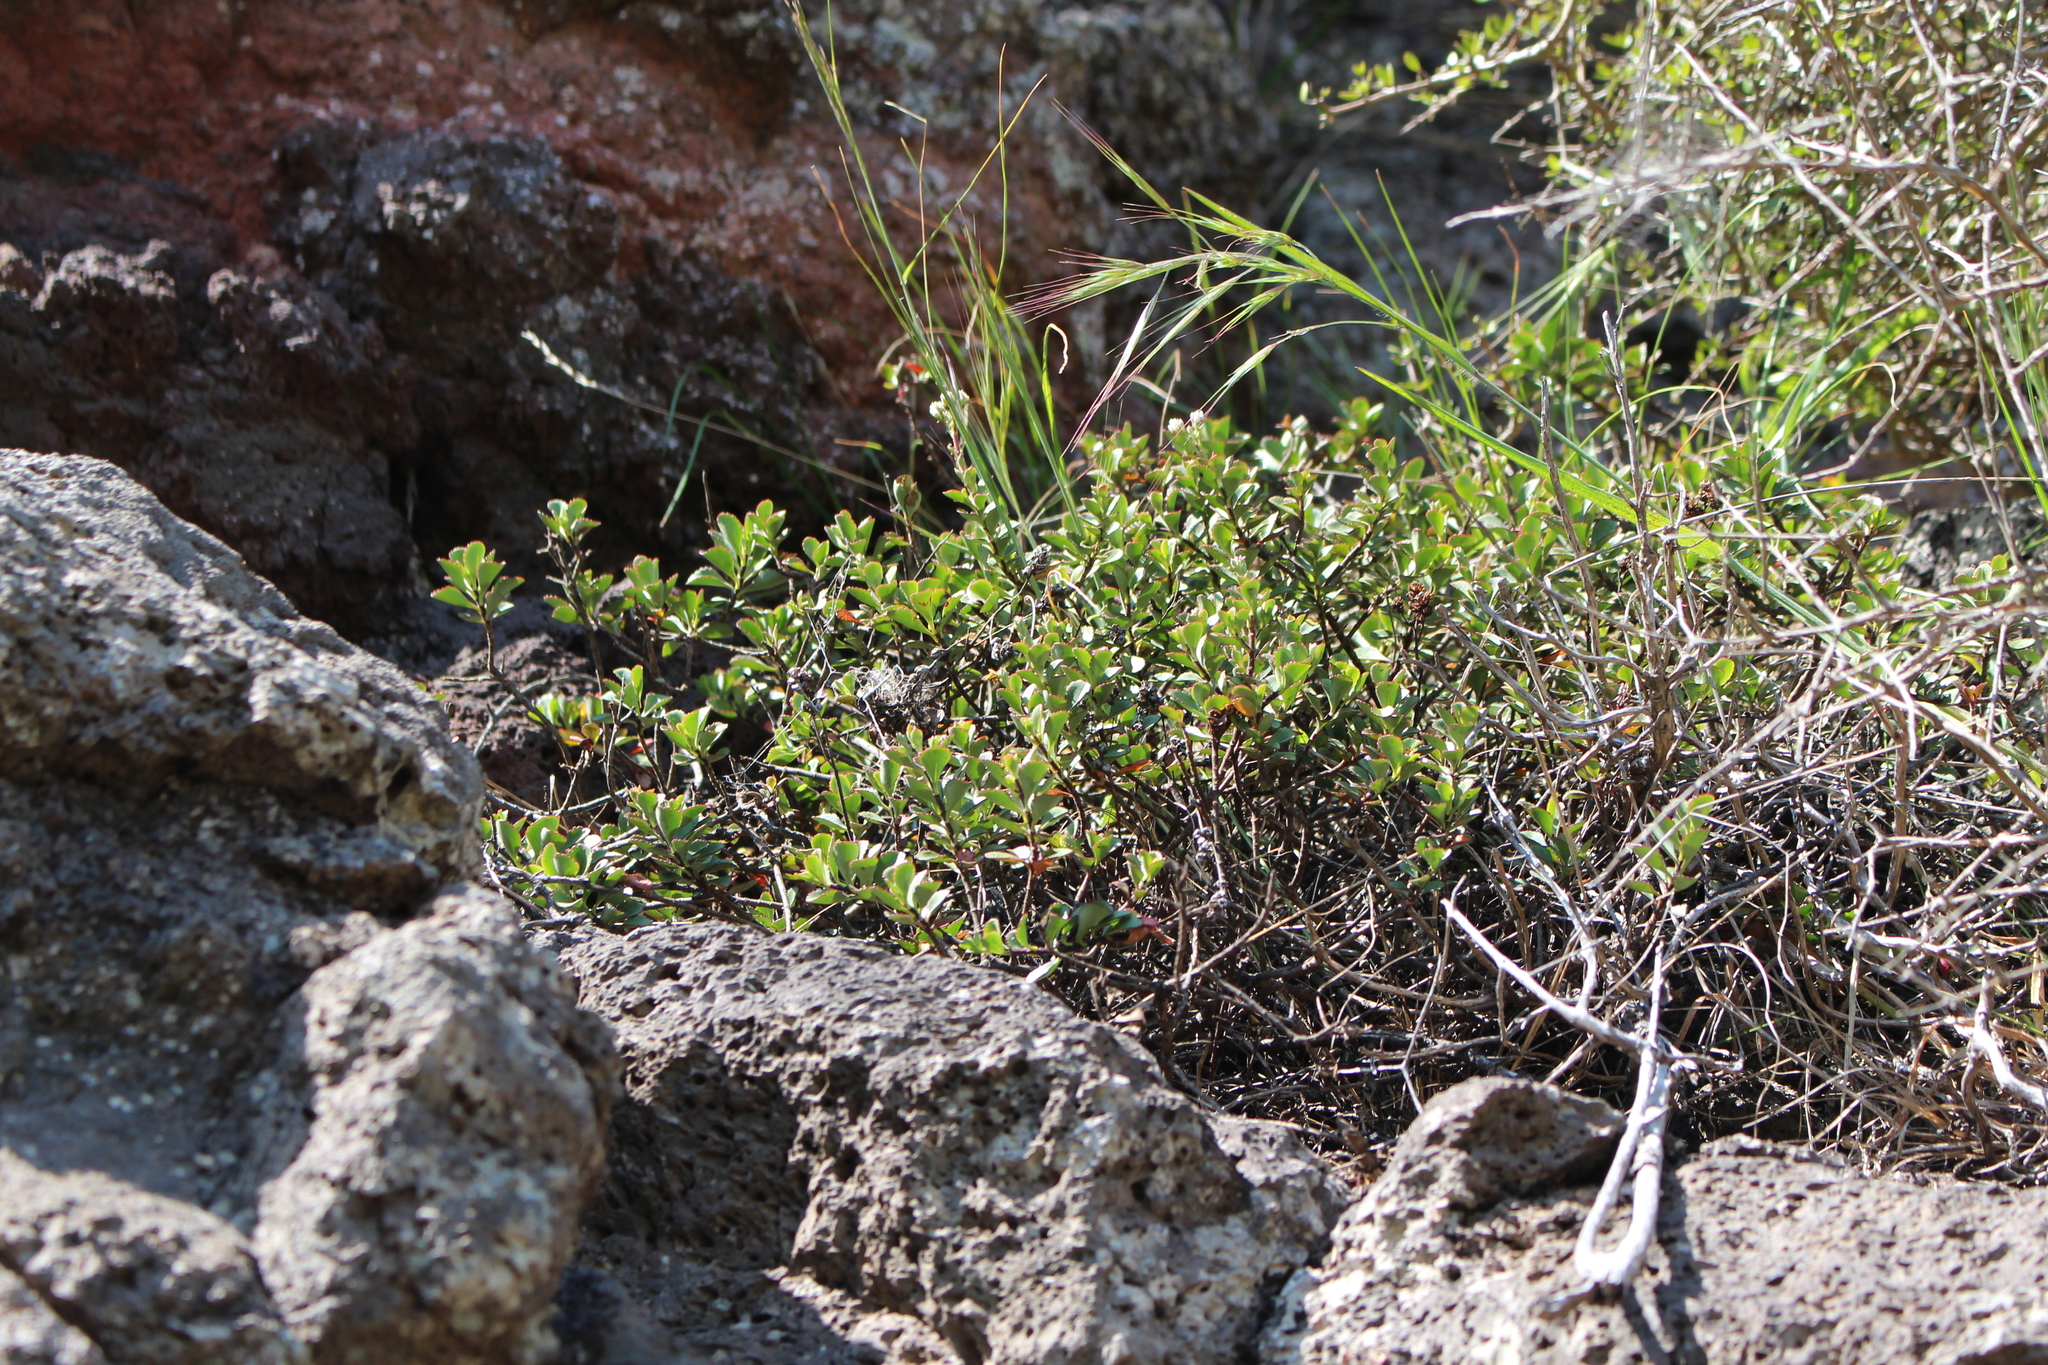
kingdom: Plantae
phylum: Tracheophyta
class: Magnoliopsida
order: Lamiales
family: Plantaginaceae
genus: Veronica
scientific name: Veronica lavaudiana
